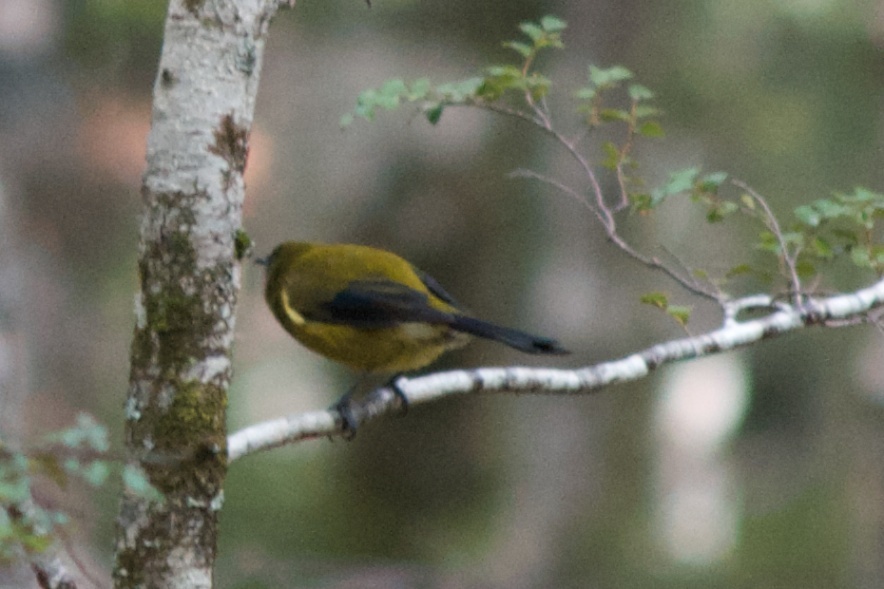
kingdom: Animalia
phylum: Chordata
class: Aves
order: Passeriformes
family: Meliphagidae
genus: Anthornis
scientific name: Anthornis melanura
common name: New zealand bellbird
